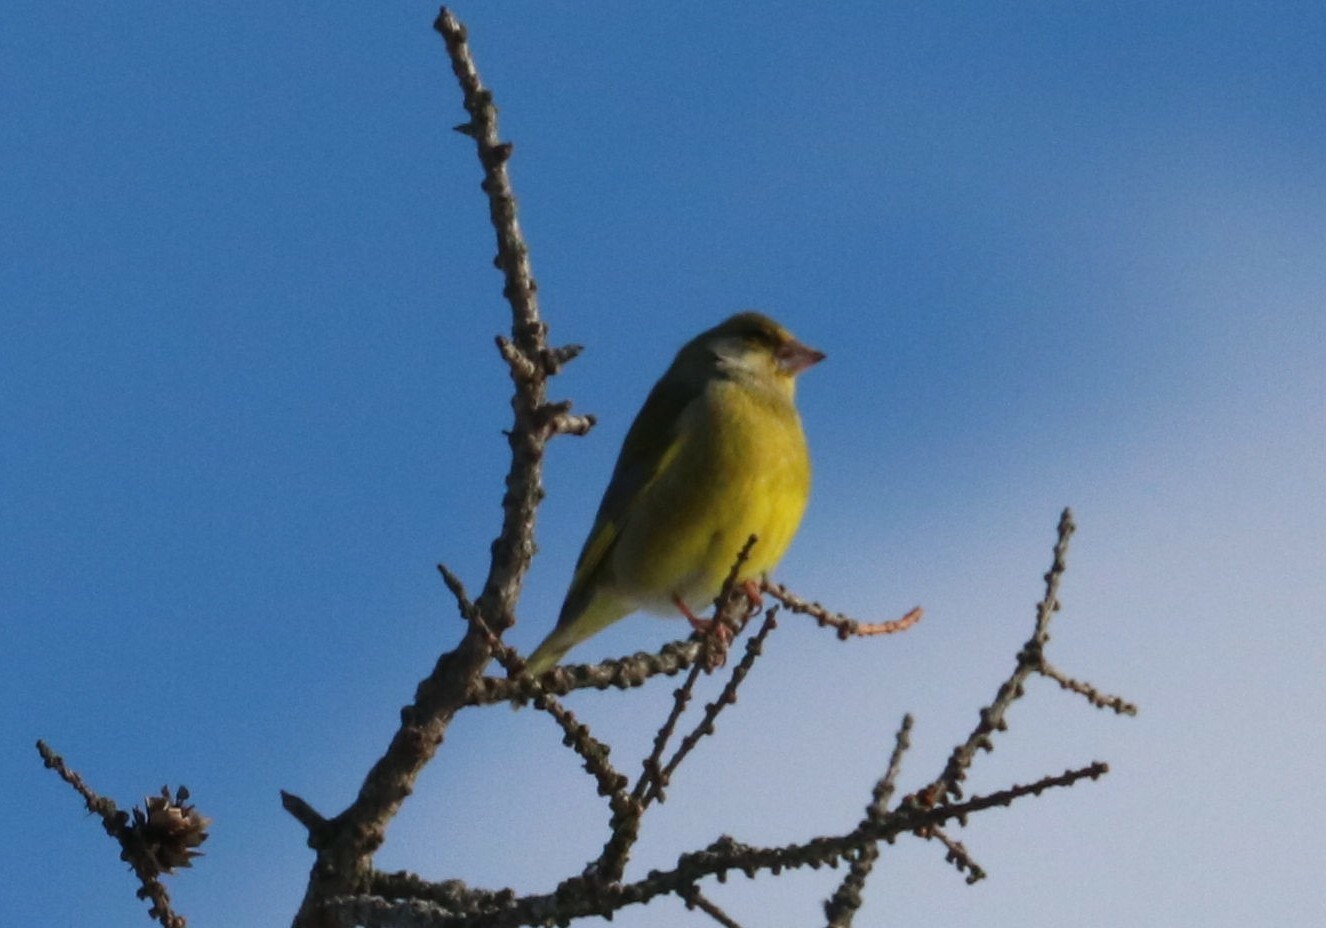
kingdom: Plantae
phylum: Tracheophyta
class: Liliopsida
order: Poales
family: Poaceae
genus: Chloris
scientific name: Chloris chloris
